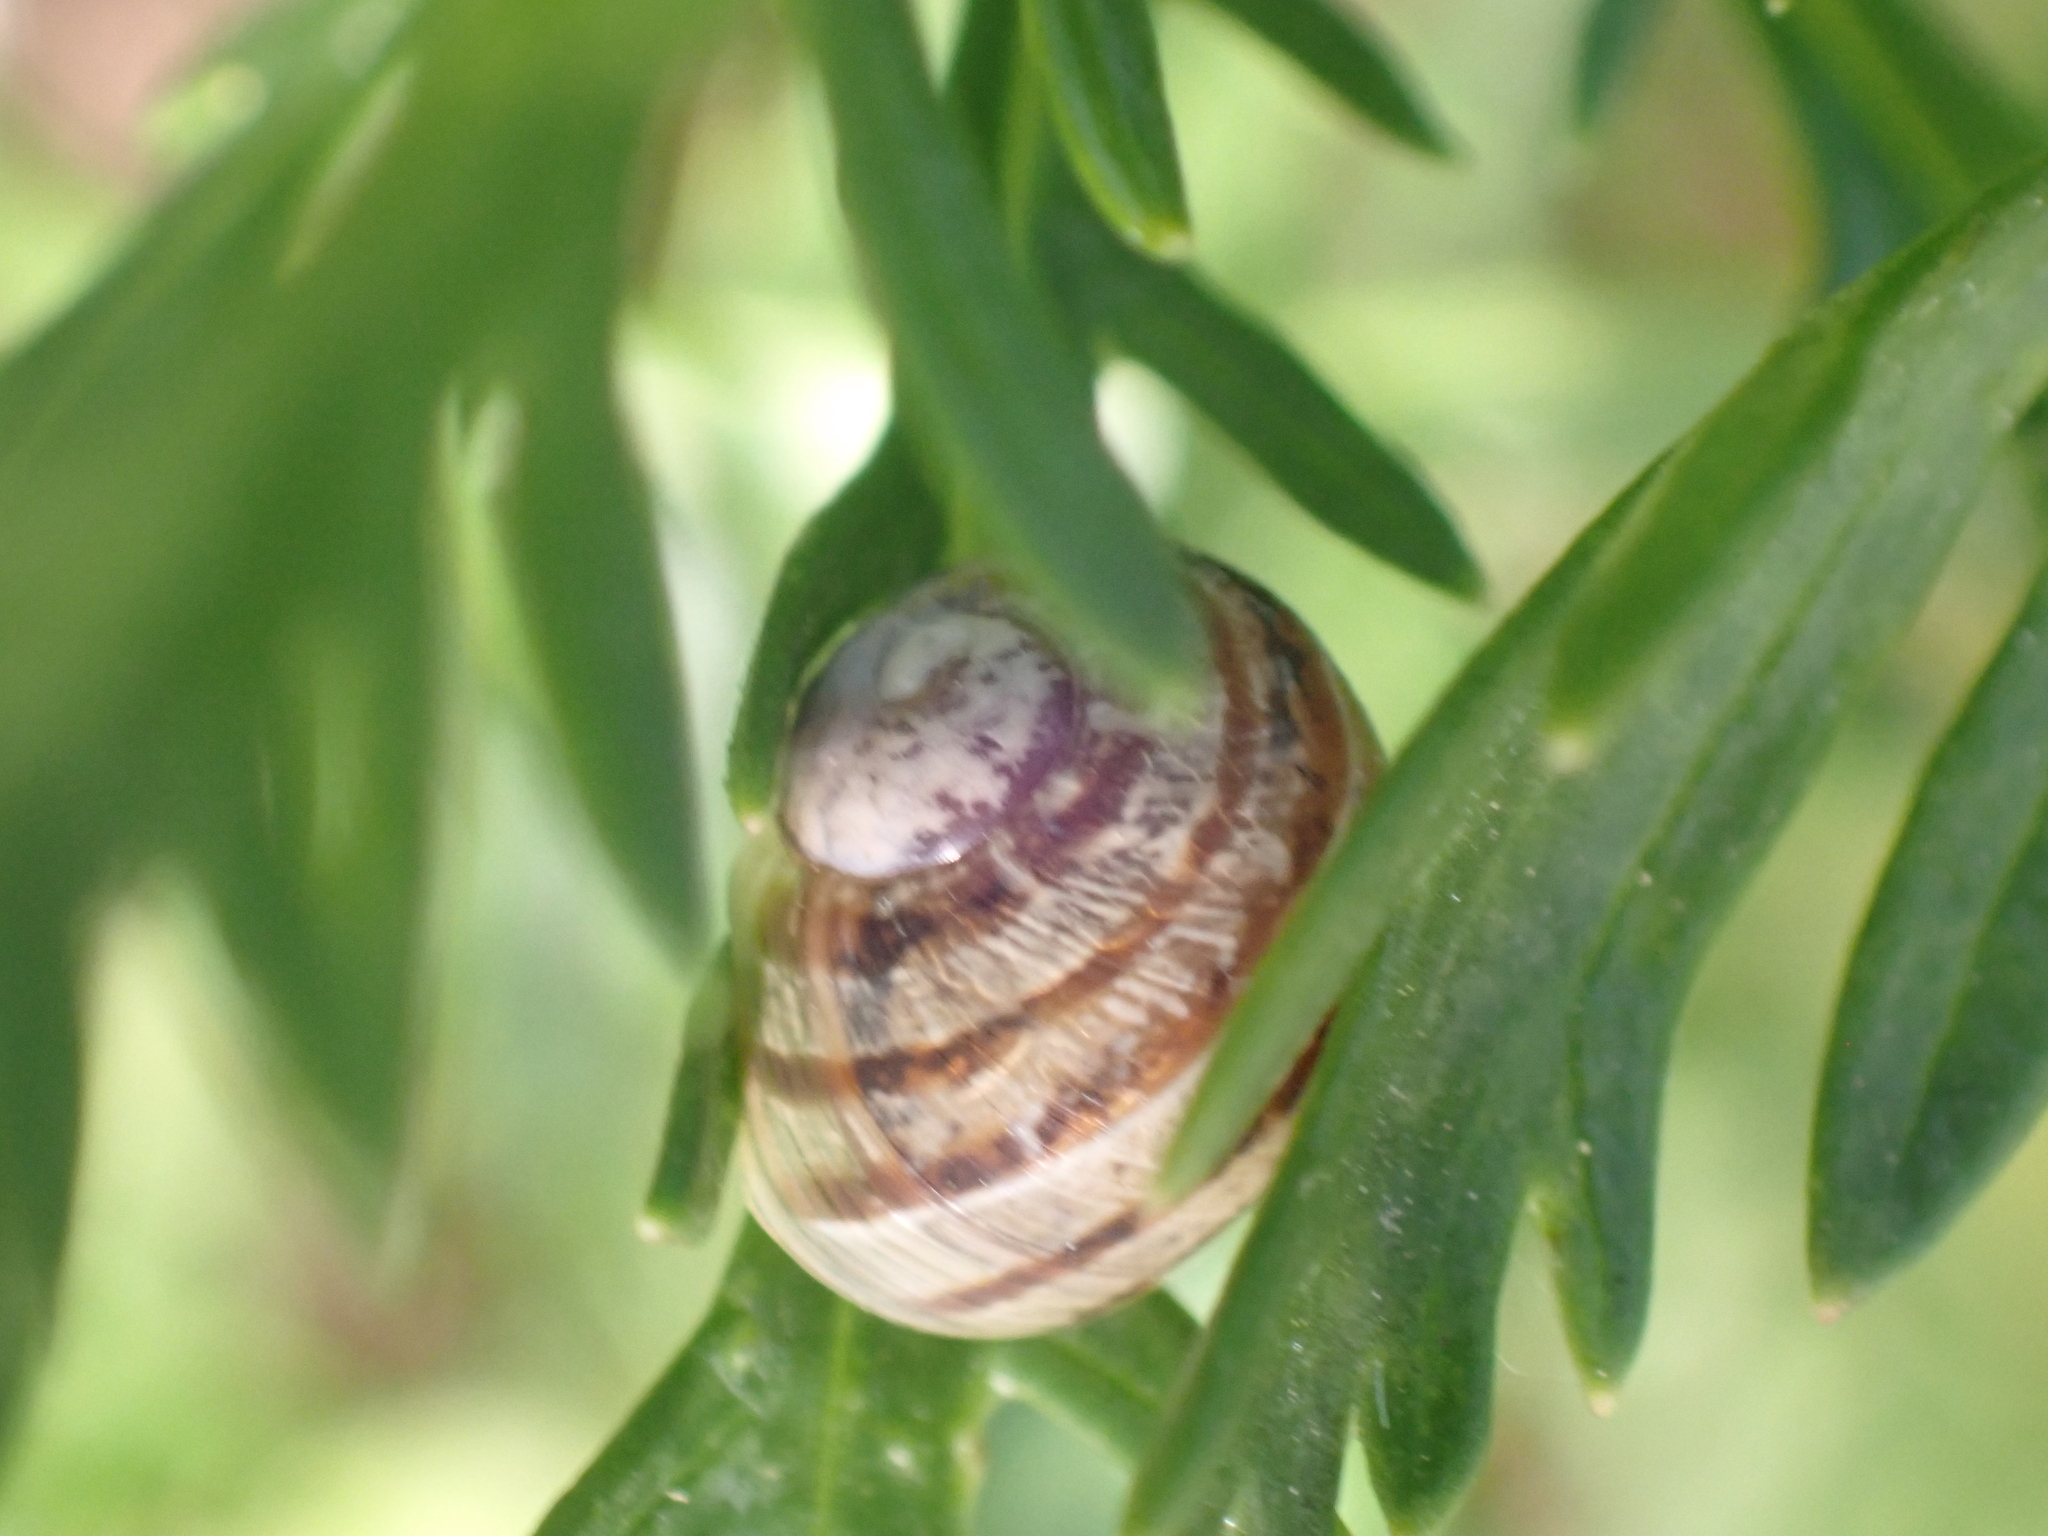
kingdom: Animalia
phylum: Mollusca
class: Gastropoda
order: Stylommatophora
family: Helicidae
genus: Cornu
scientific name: Cornu aspersum
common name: Brown garden snail
